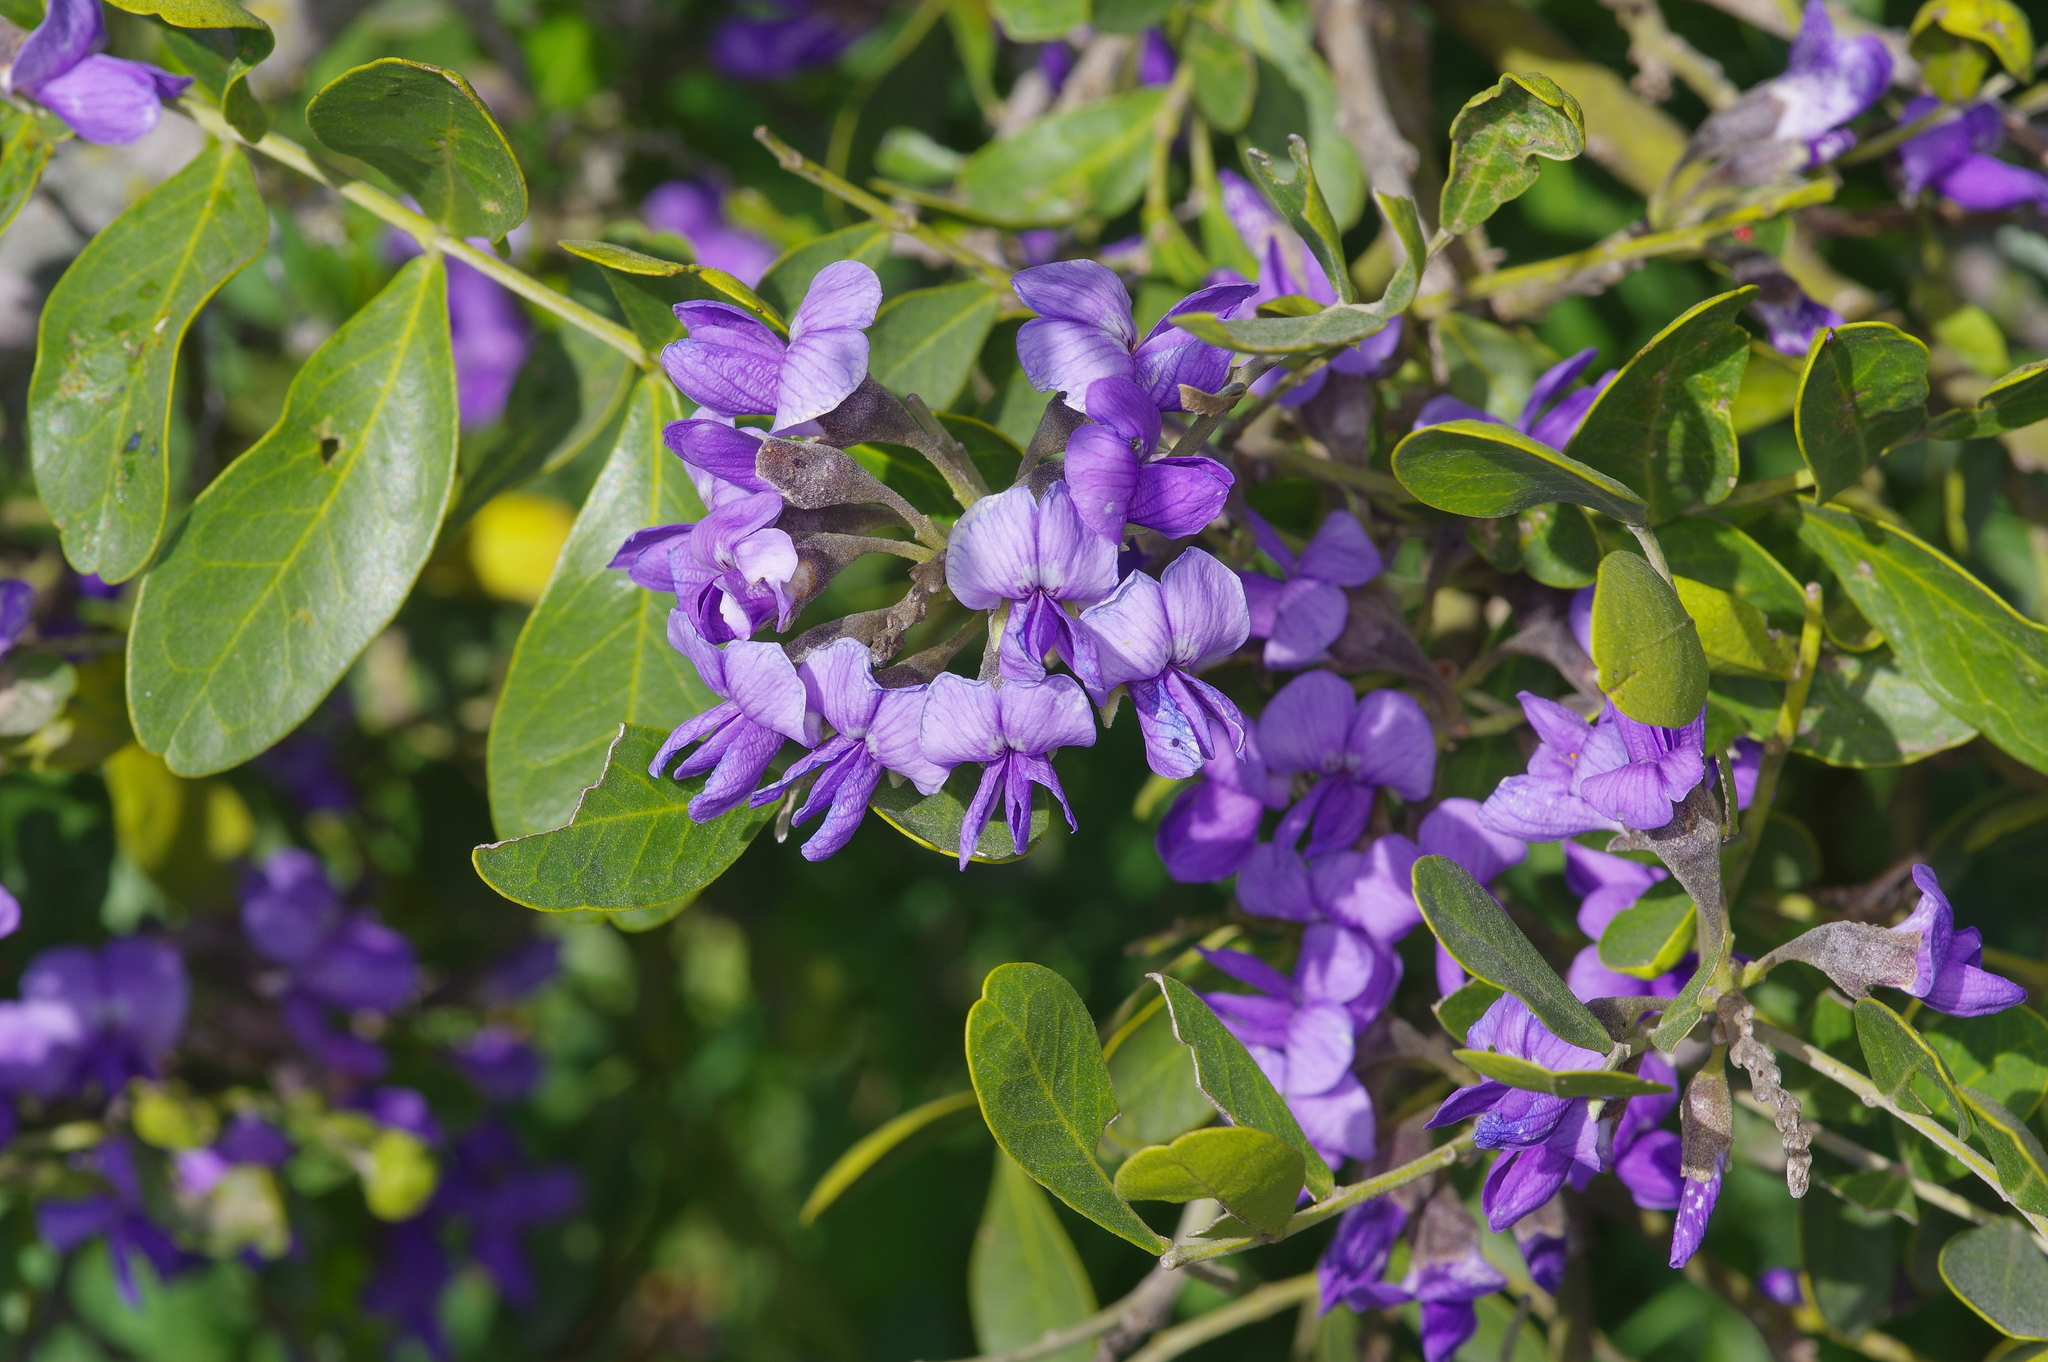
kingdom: Plantae
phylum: Tracheophyta
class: Magnoliopsida
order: Fabales
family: Fabaceae
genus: Dermatophyllum
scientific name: Dermatophyllum secundiflorum
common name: Texas-mountain-laurel
